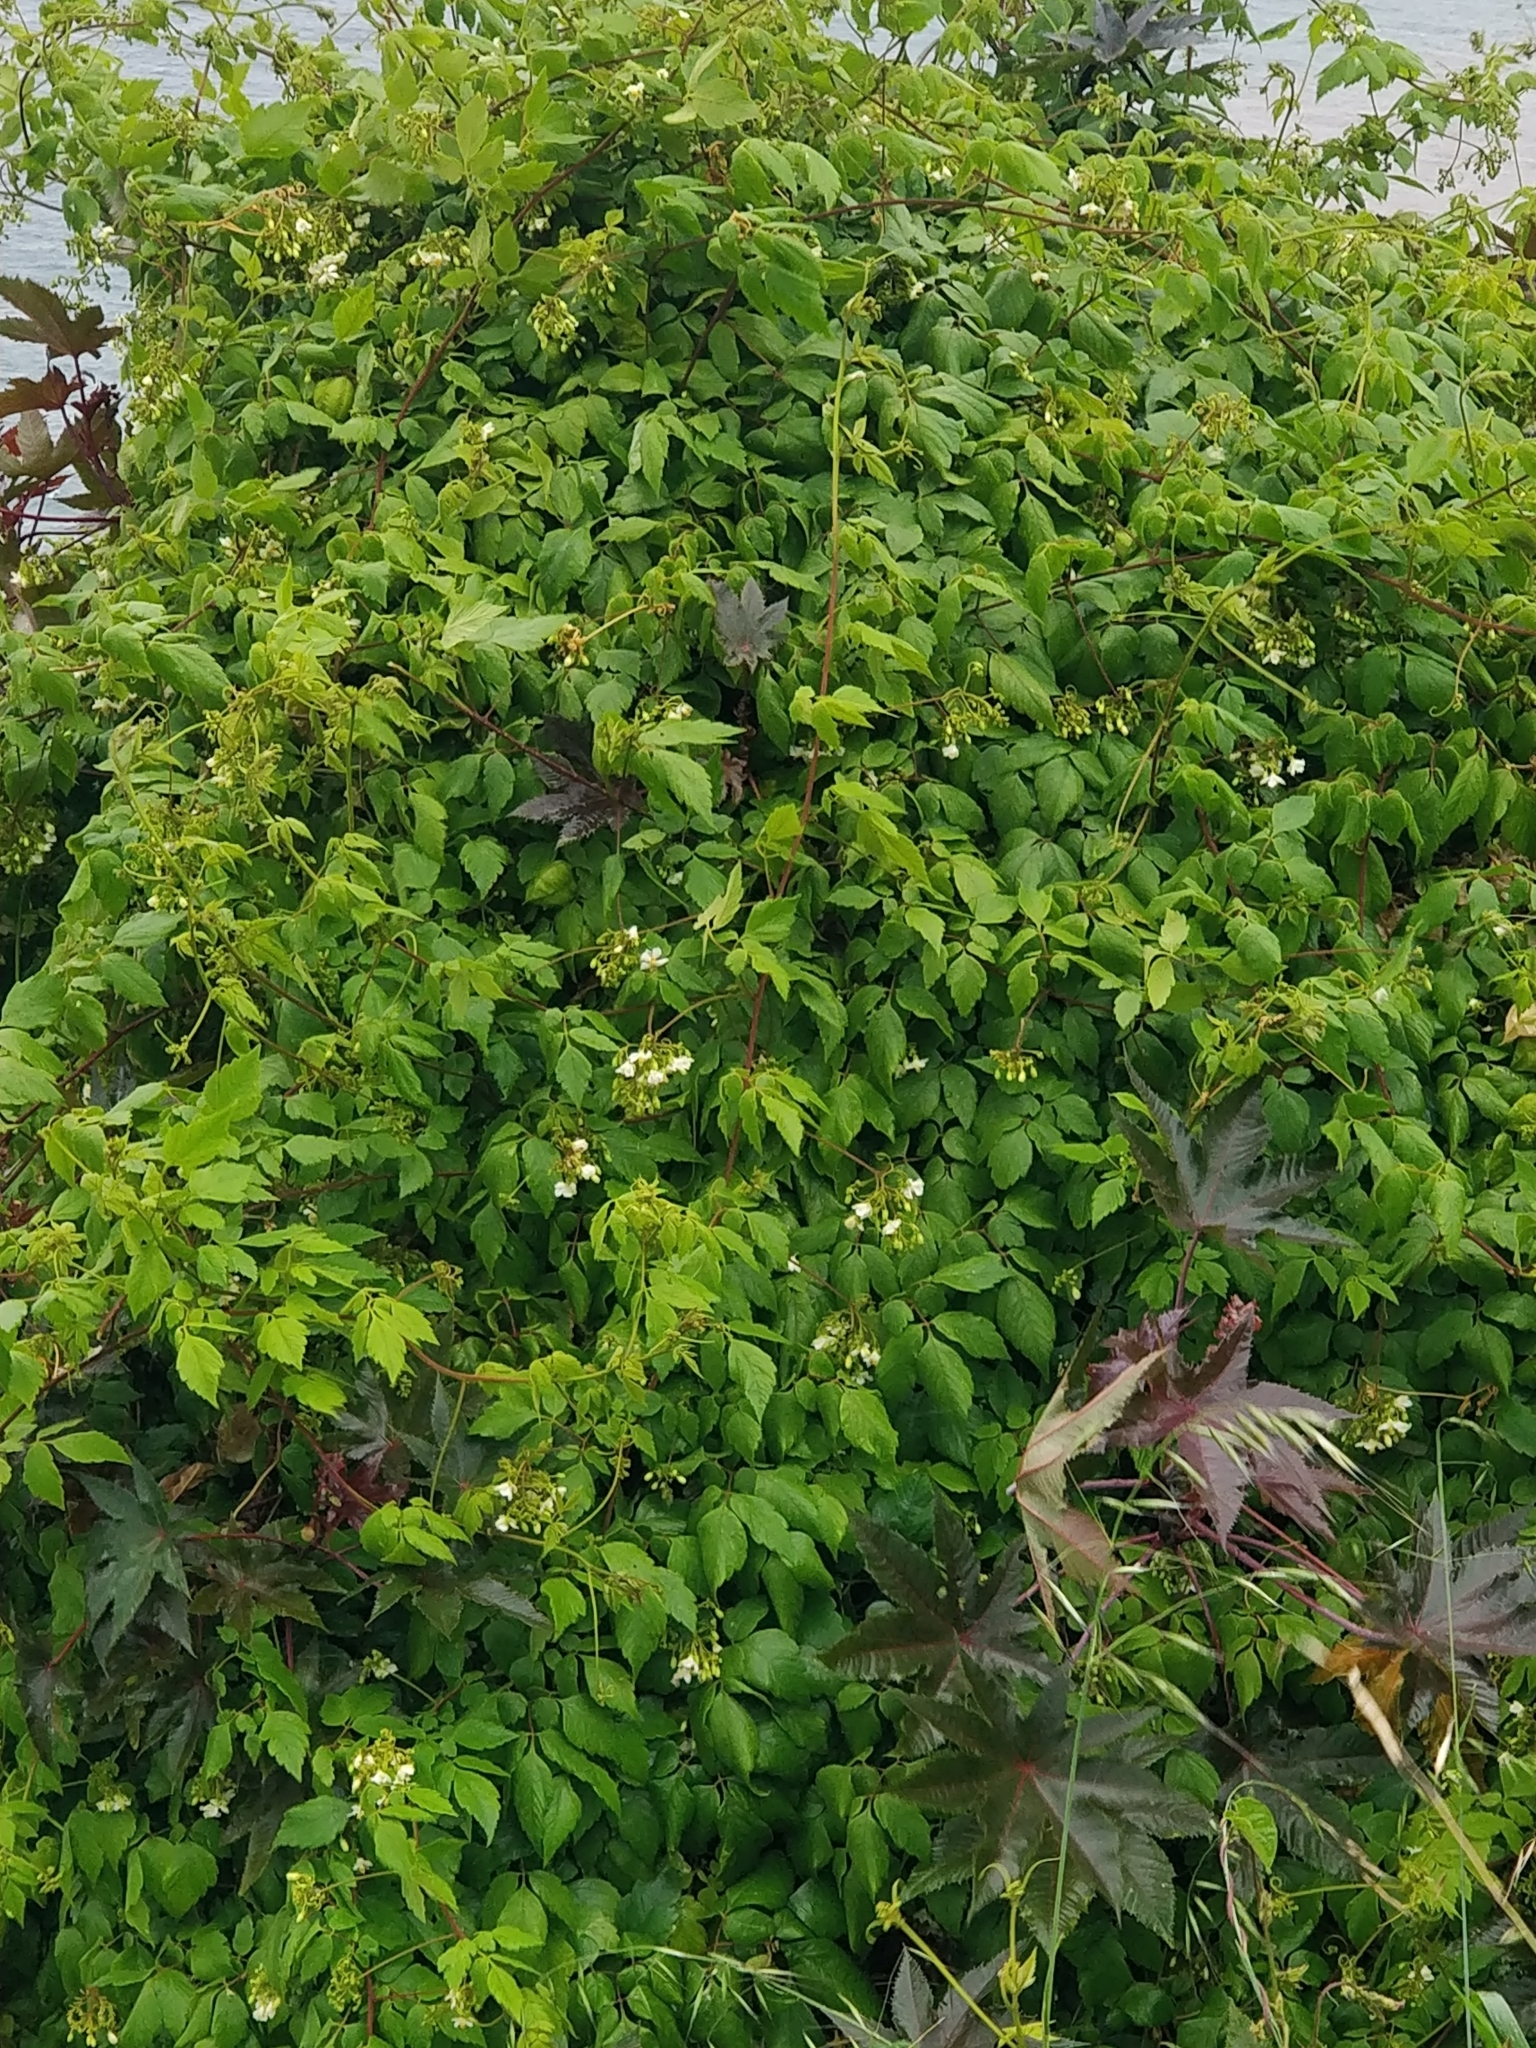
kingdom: Plantae
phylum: Tracheophyta
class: Magnoliopsida
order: Sapindales
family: Sapindaceae
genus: Cardiospermum
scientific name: Cardiospermum grandiflorum
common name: Balloon vine
